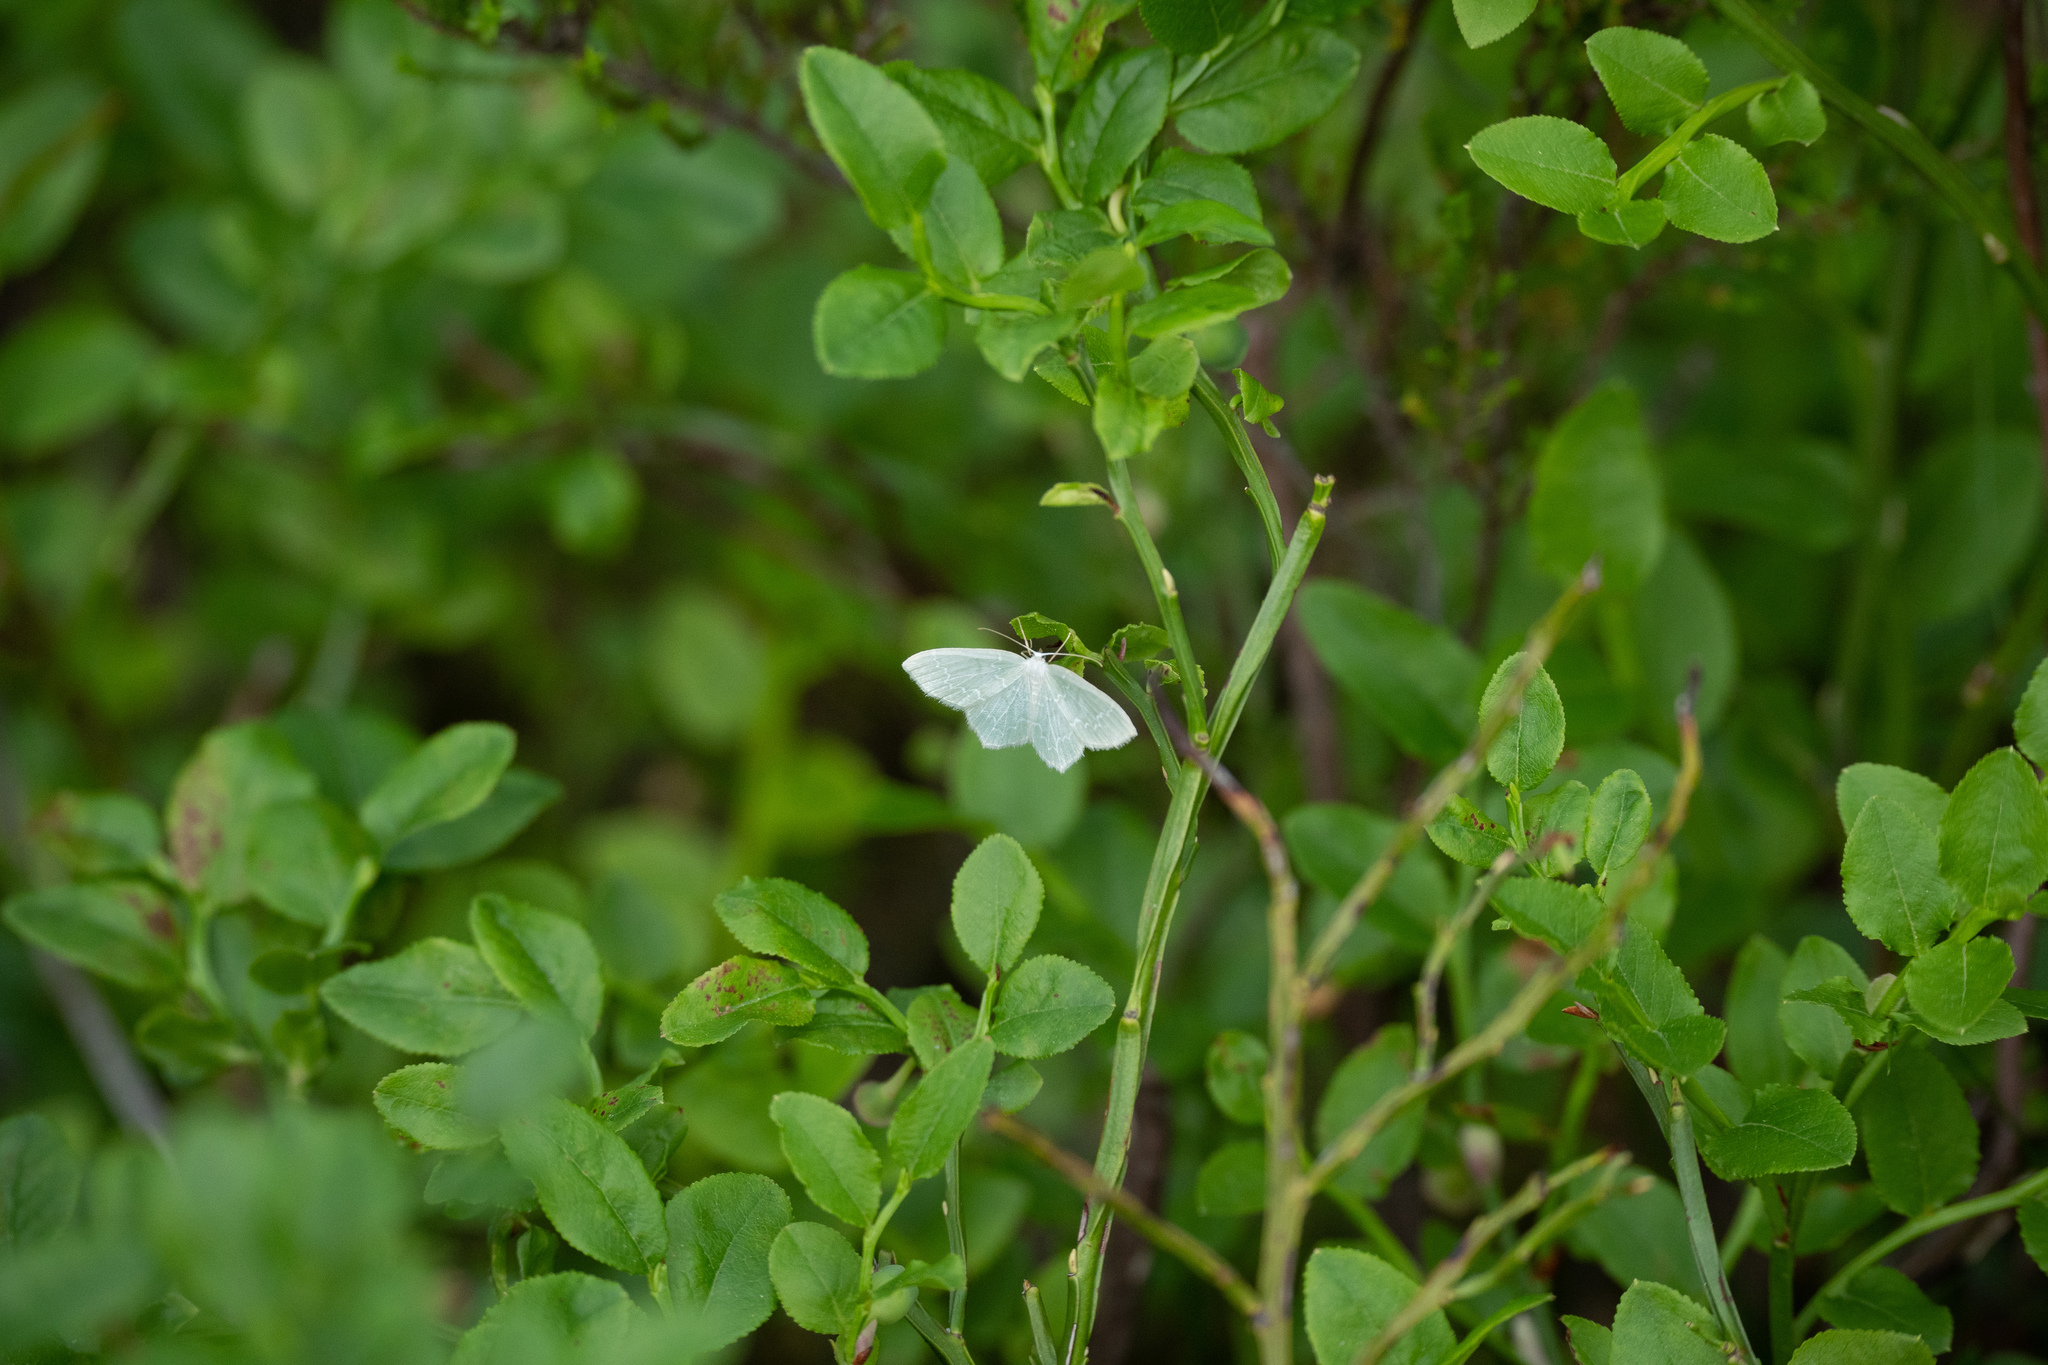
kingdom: Animalia
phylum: Arthropoda
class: Insecta
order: Lepidoptera
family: Geometridae
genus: Jodis
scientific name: Jodis putata
